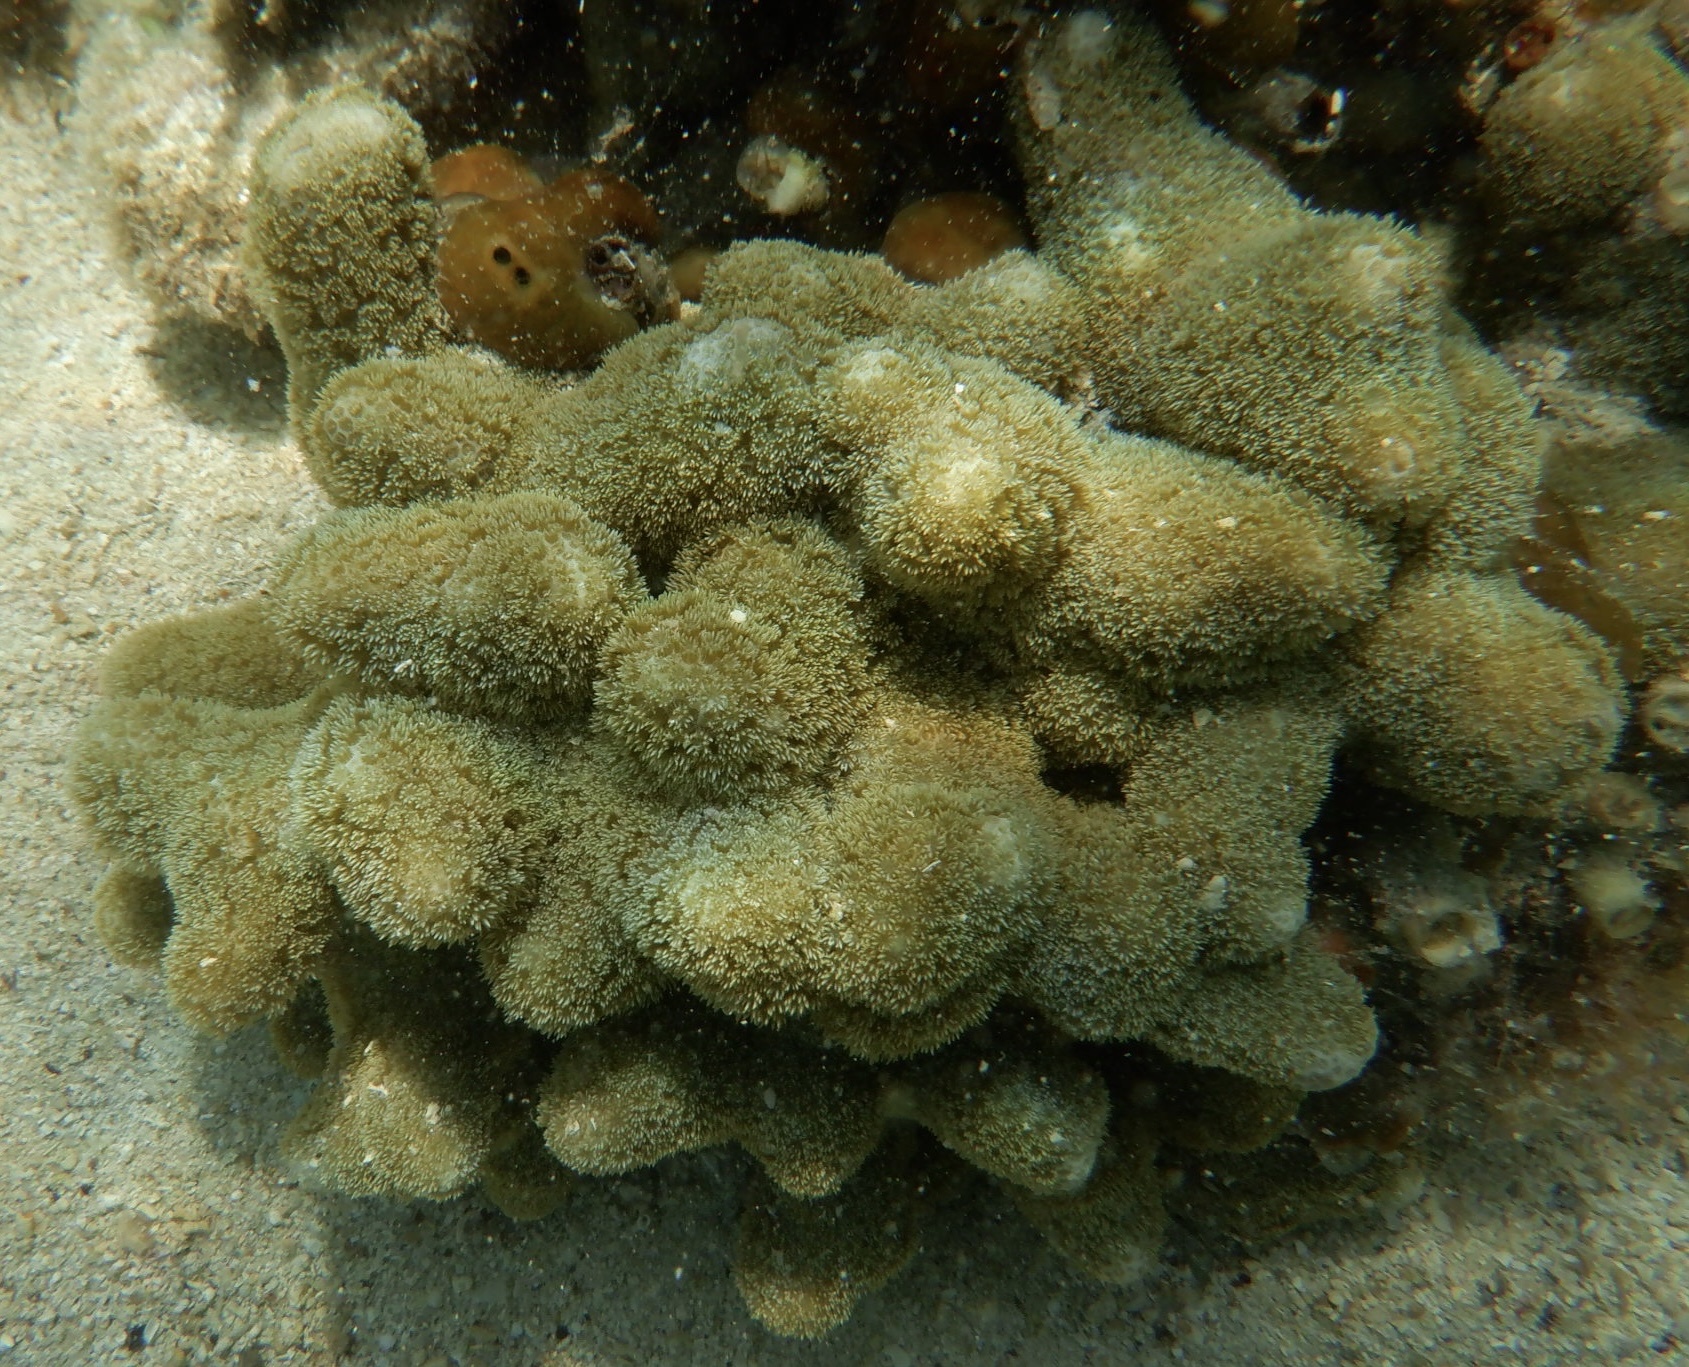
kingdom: Animalia
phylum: Cnidaria
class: Anthozoa
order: Scleractinia
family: Poritidae
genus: Porites
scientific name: Porites porites
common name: Finger coral
